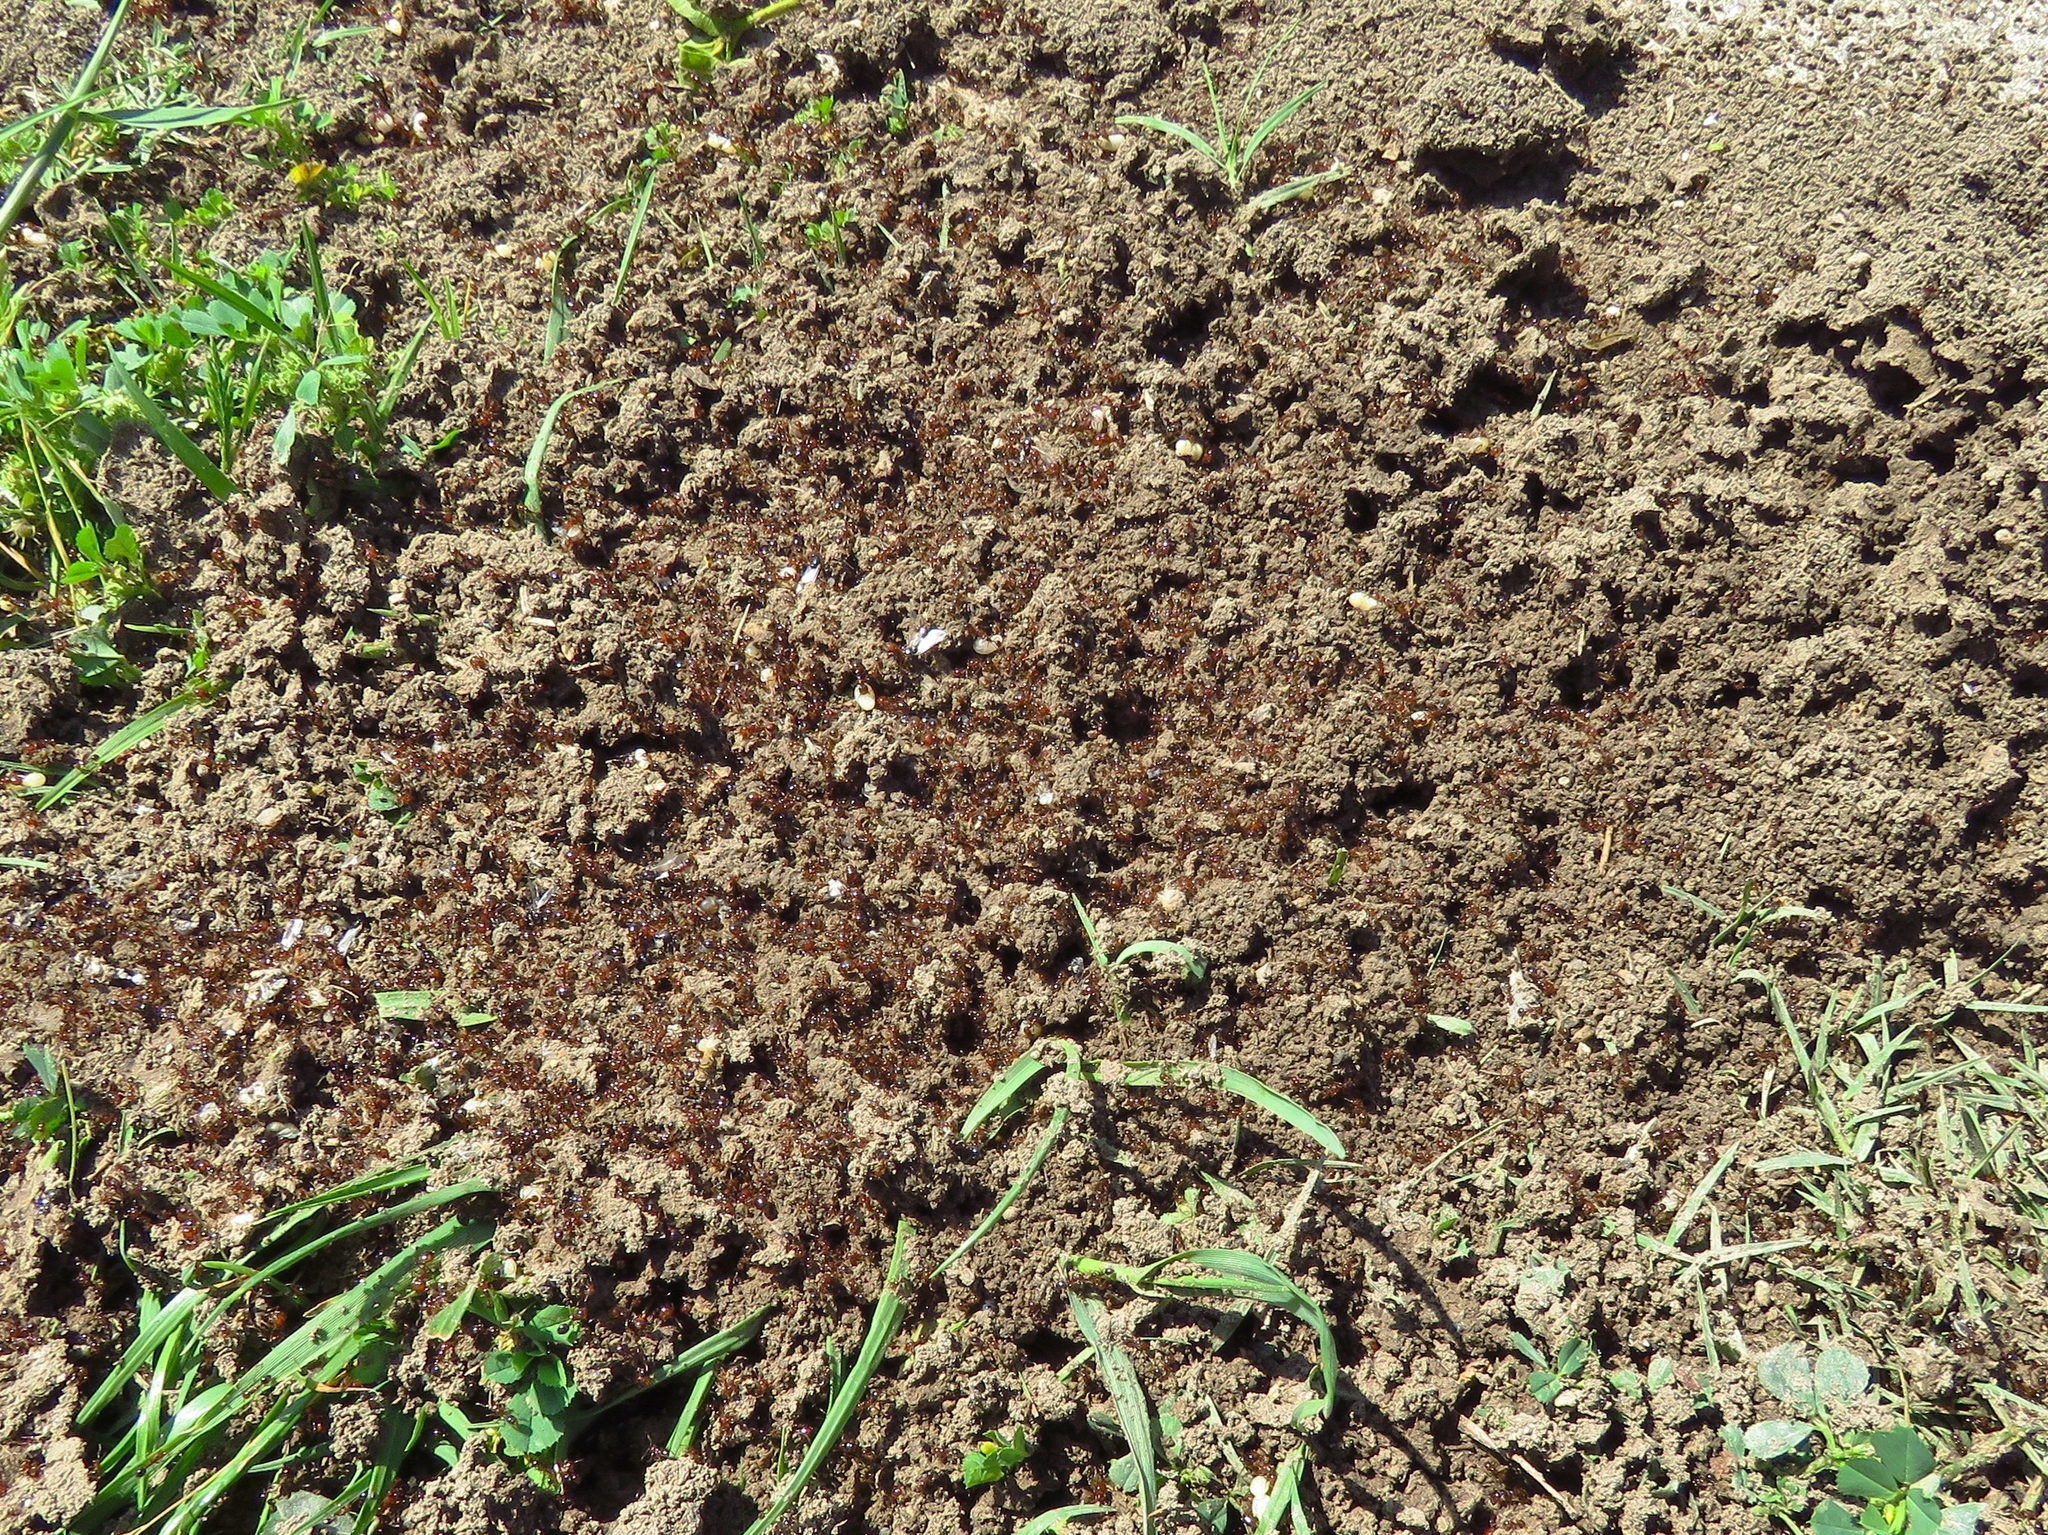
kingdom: Animalia
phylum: Arthropoda
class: Insecta
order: Hymenoptera
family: Formicidae
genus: Solenopsis
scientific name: Solenopsis invicta
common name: Red imported fire ant
